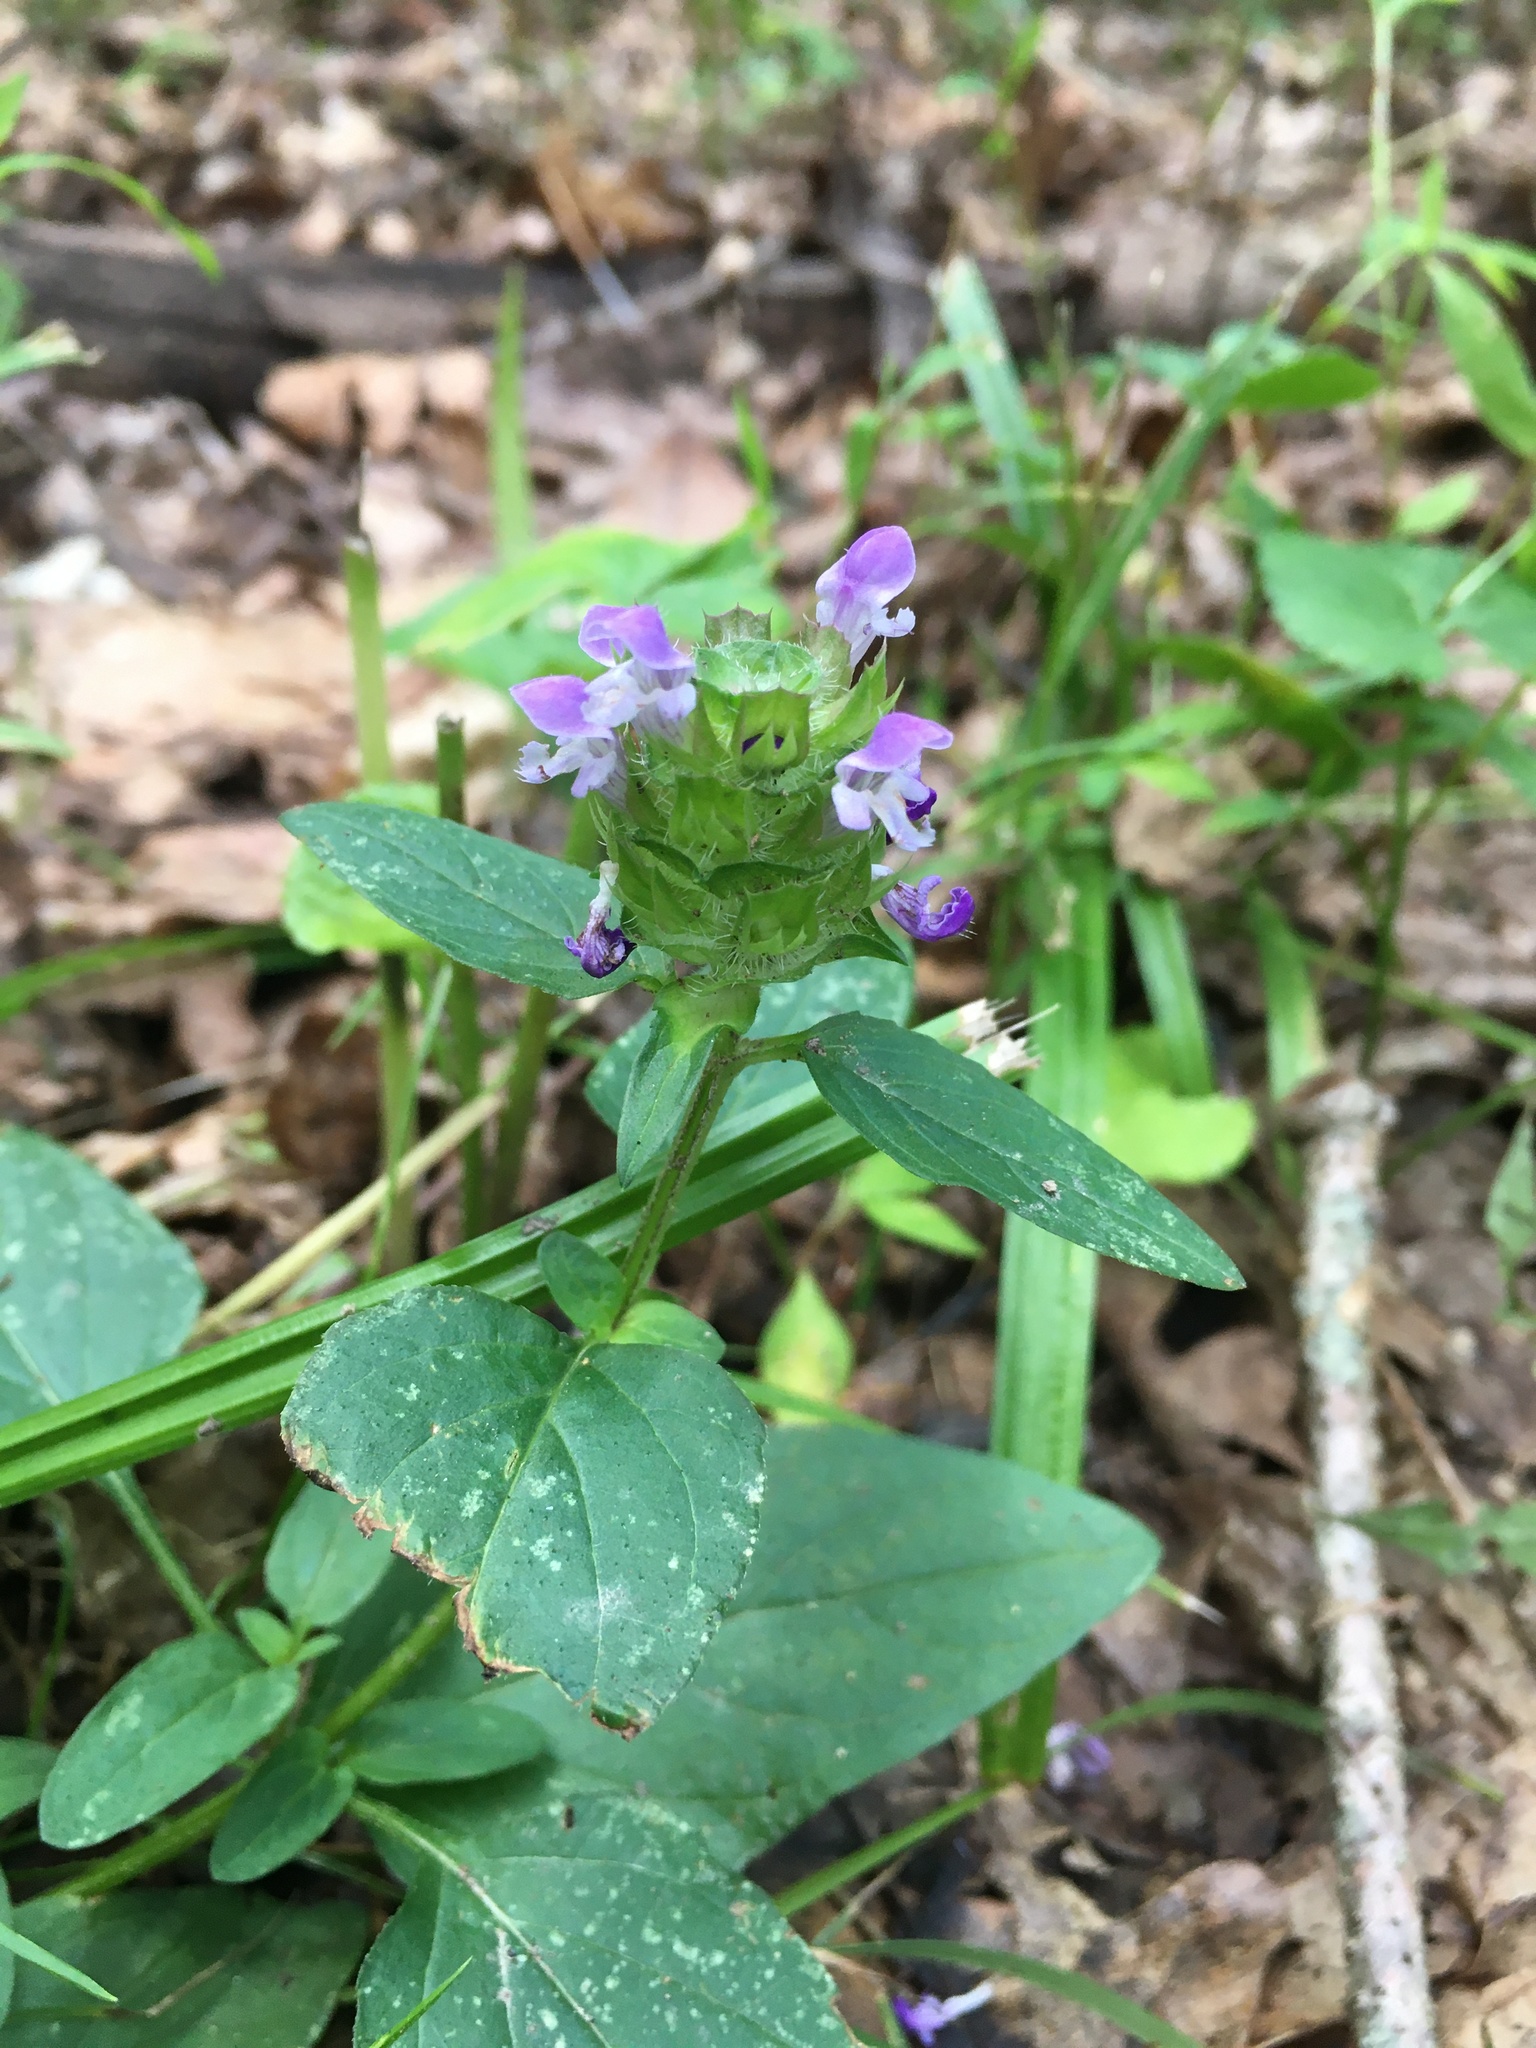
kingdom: Plantae
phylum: Tracheophyta
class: Magnoliopsida
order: Lamiales
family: Lamiaceae
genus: Prunella
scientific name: Prunella vulgaris
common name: Heal-all
